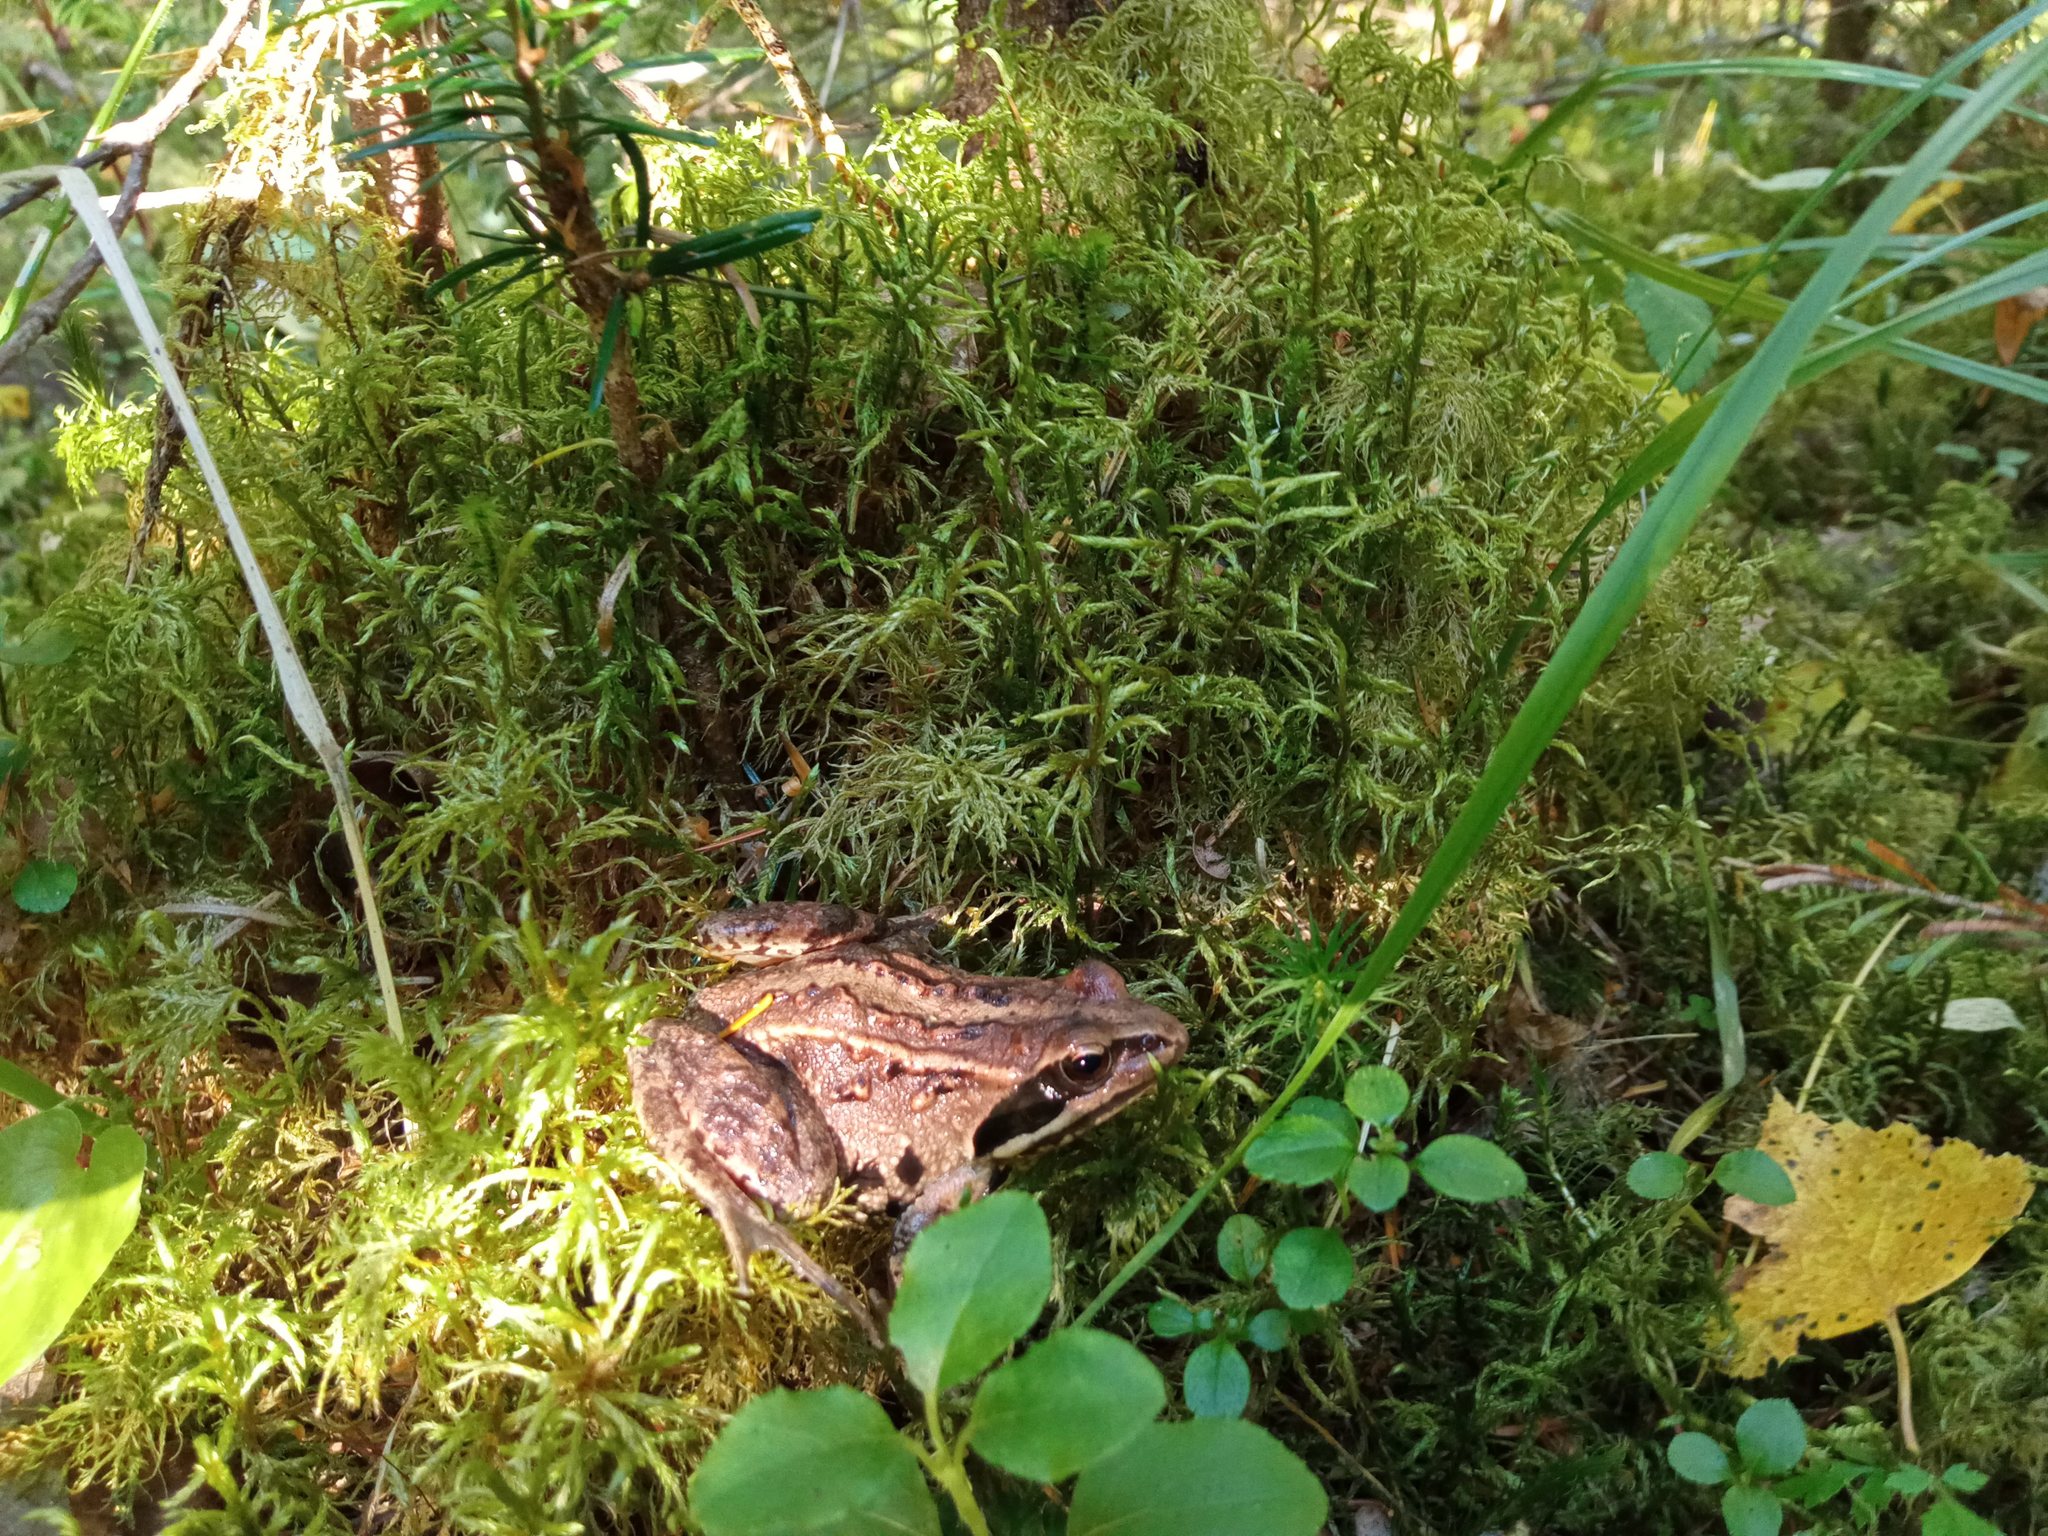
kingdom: Animalia
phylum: Chordata
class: Amphibia
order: Anura
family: Ranidae
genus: Rana
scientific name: Rana arvalis
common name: Moor frog
